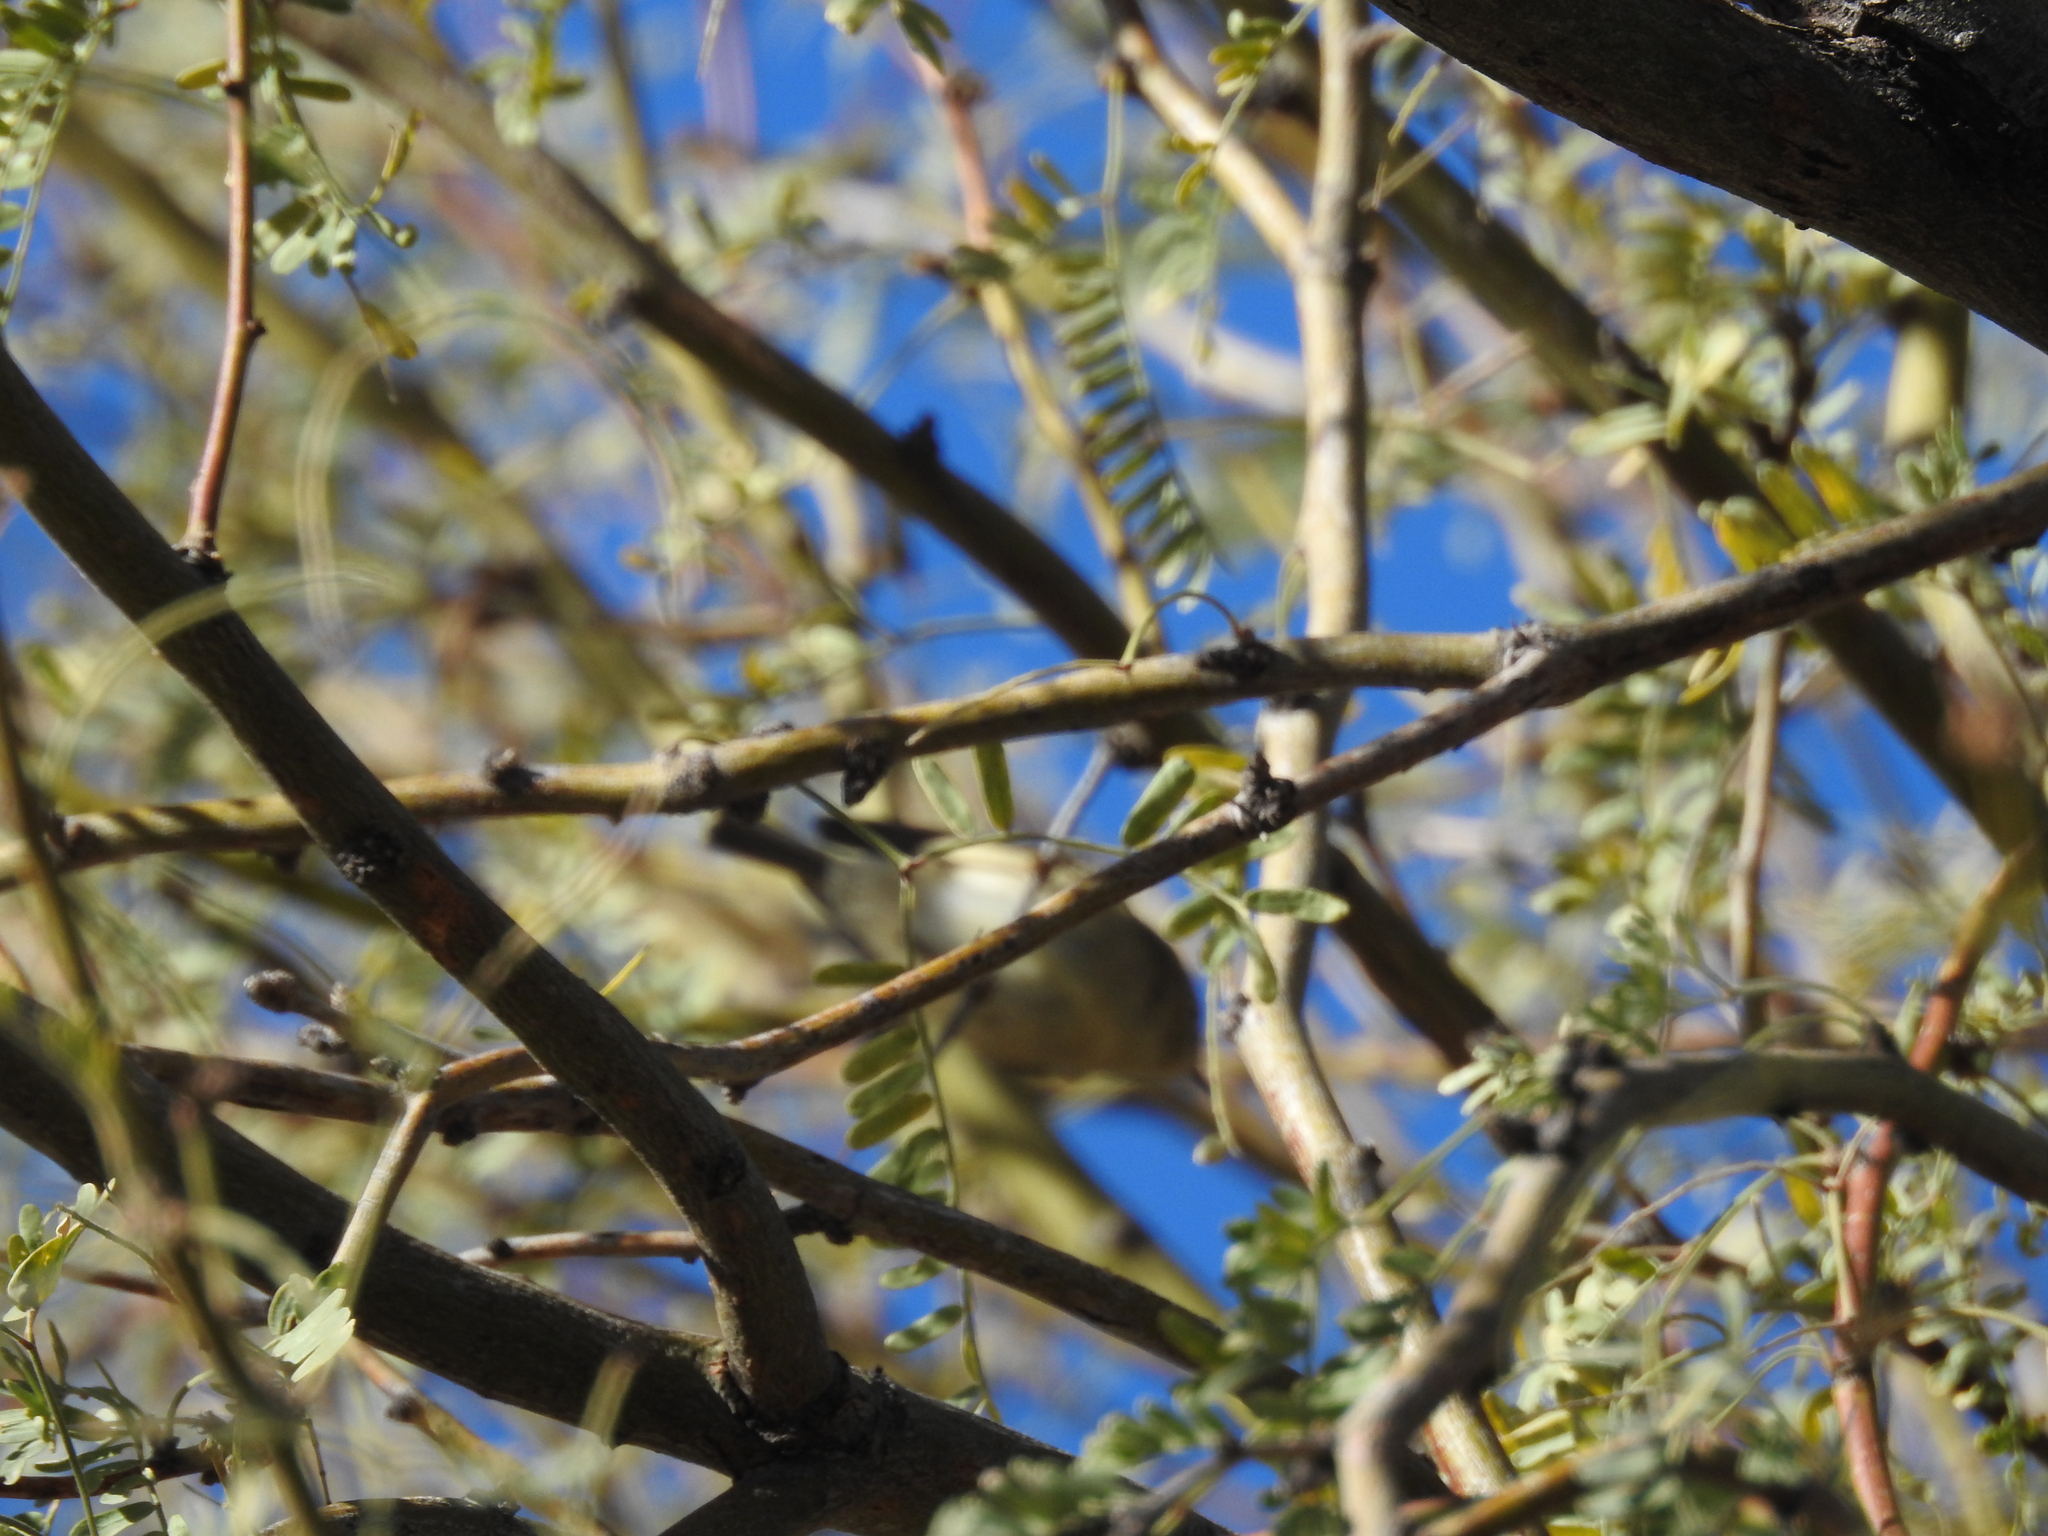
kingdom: Animalia
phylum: Chordata
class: Aves
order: Passeriformes
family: Regulidae
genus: Regulus
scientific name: Regulus calendula
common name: Ruby-crowned kinglet
